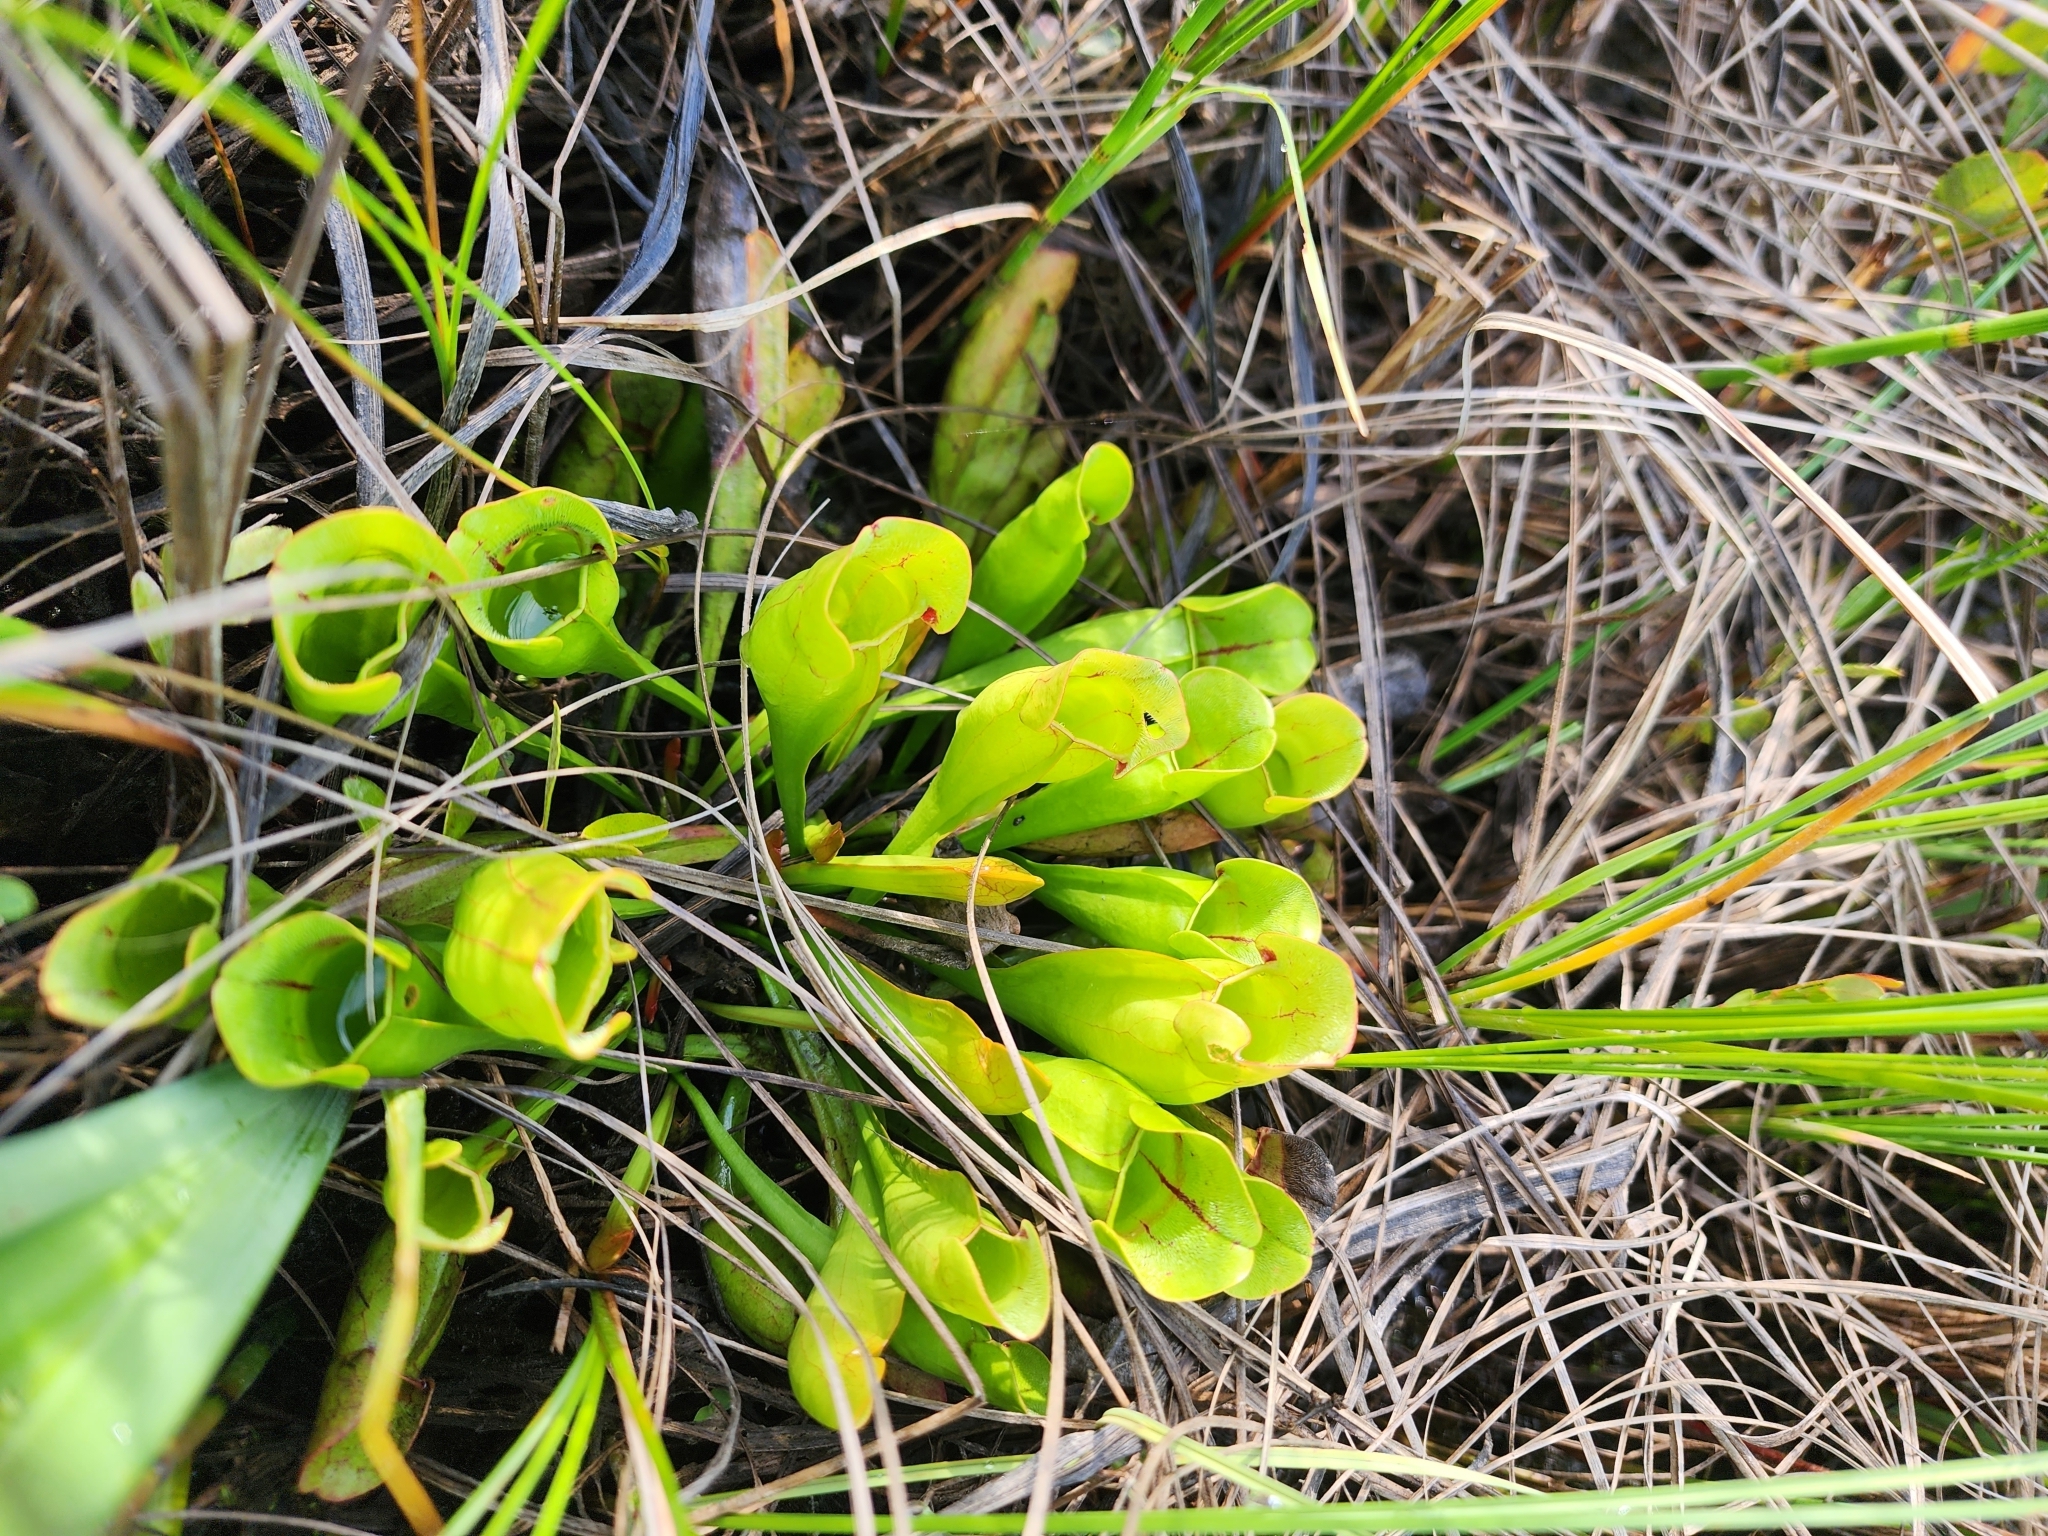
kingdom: Plantae
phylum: Tracheophyta
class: Magnoliopsida
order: Ericales
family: Sarraceniaceae
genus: Sarracenia
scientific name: Sarracenia purpurea
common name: Pitcherplant
